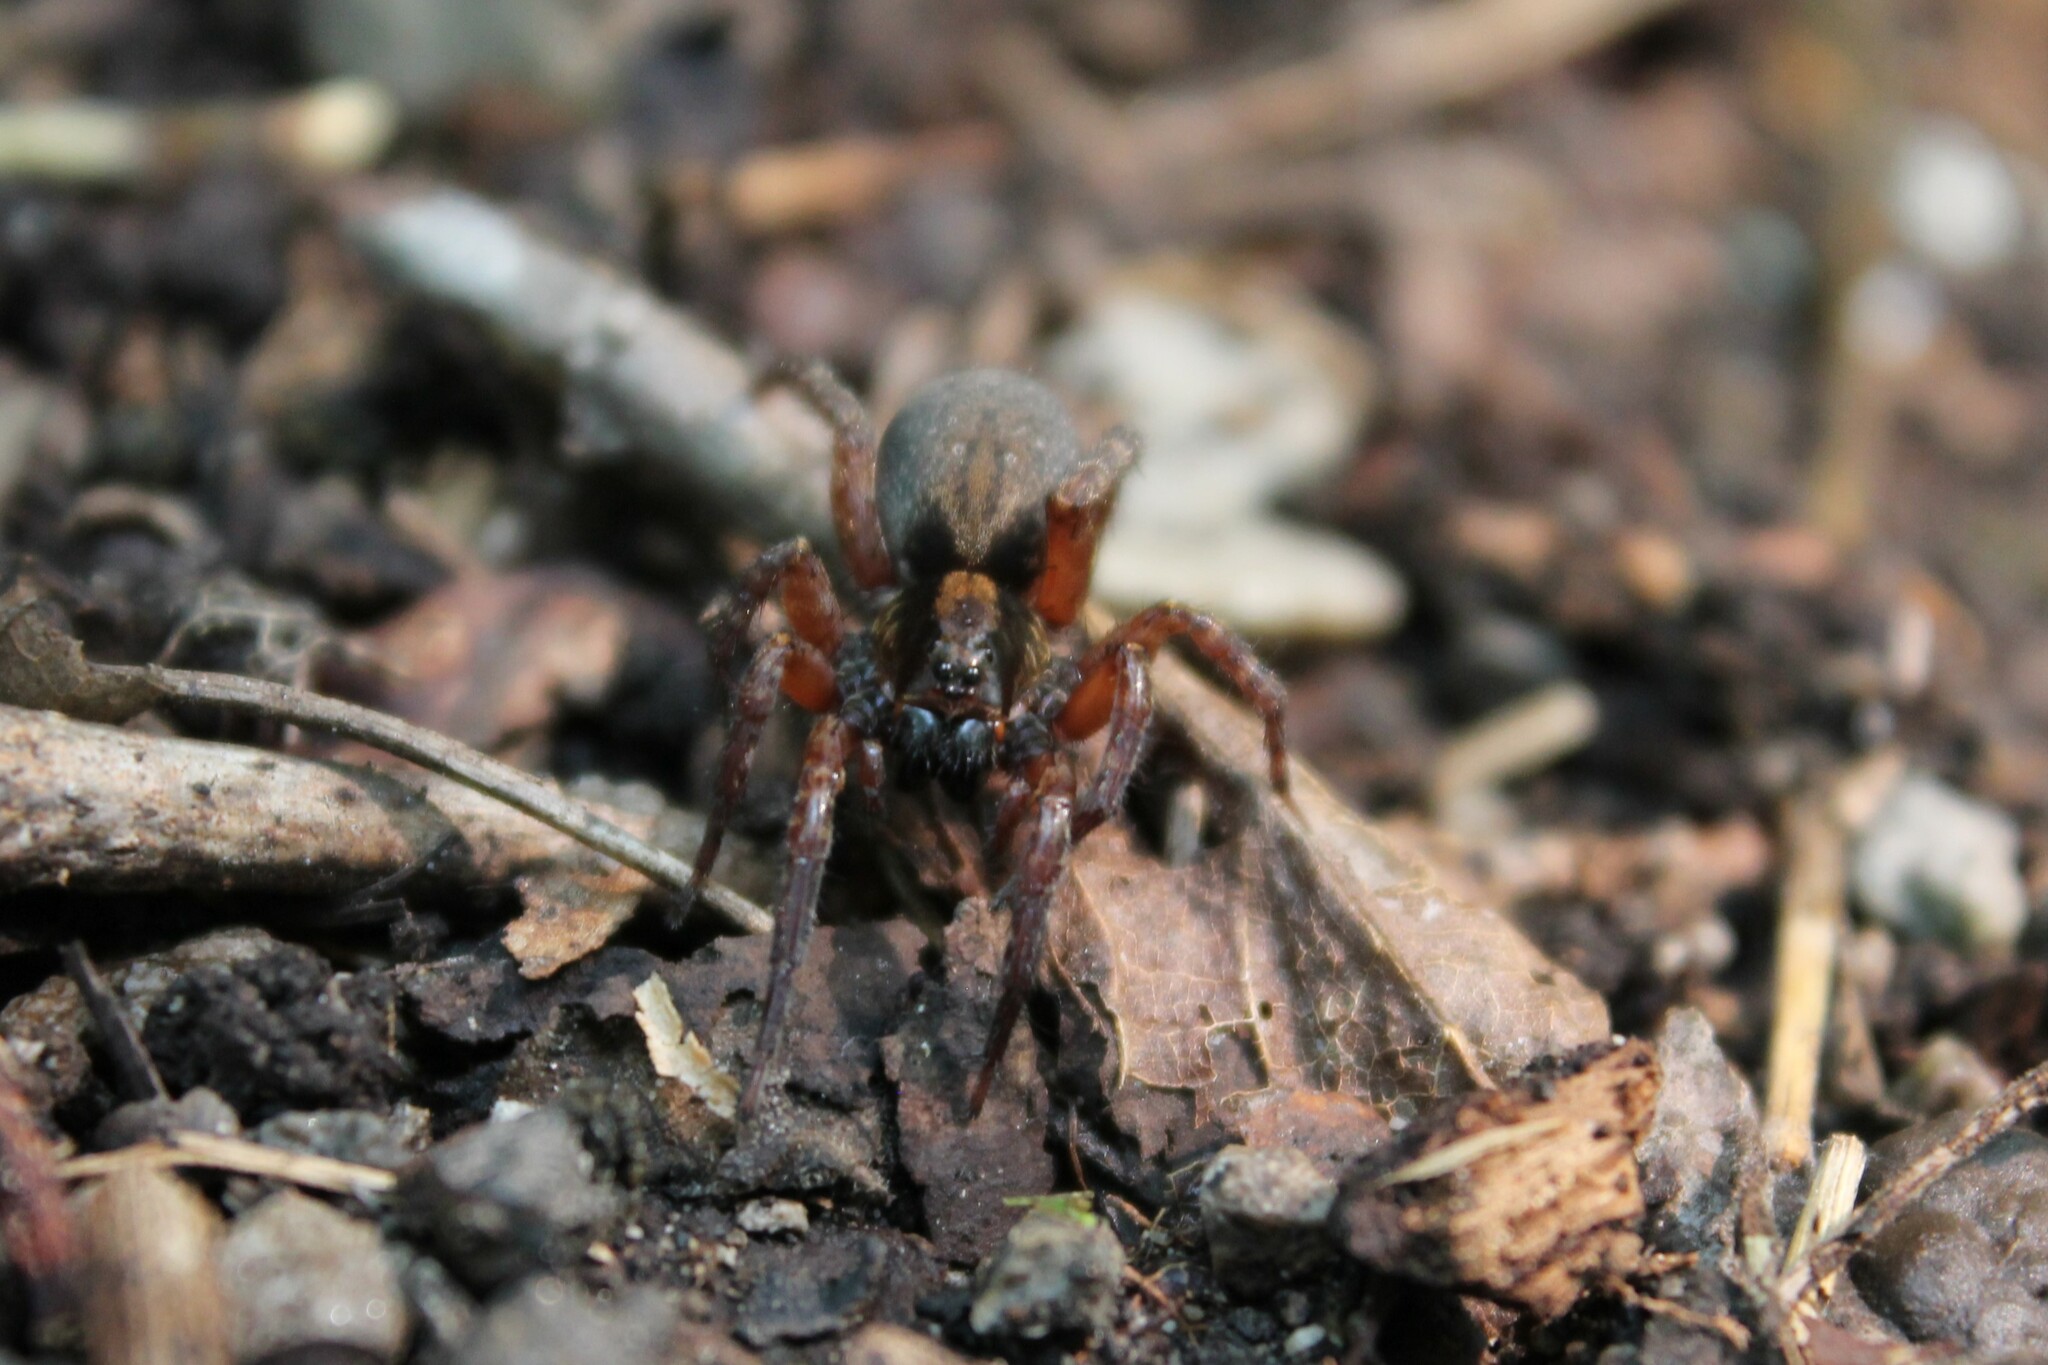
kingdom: Animalia
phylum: Arthropoda
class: Arachnida
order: Araneae
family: Lycosidae
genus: Trochosa
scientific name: Trochosa sepulchralis
